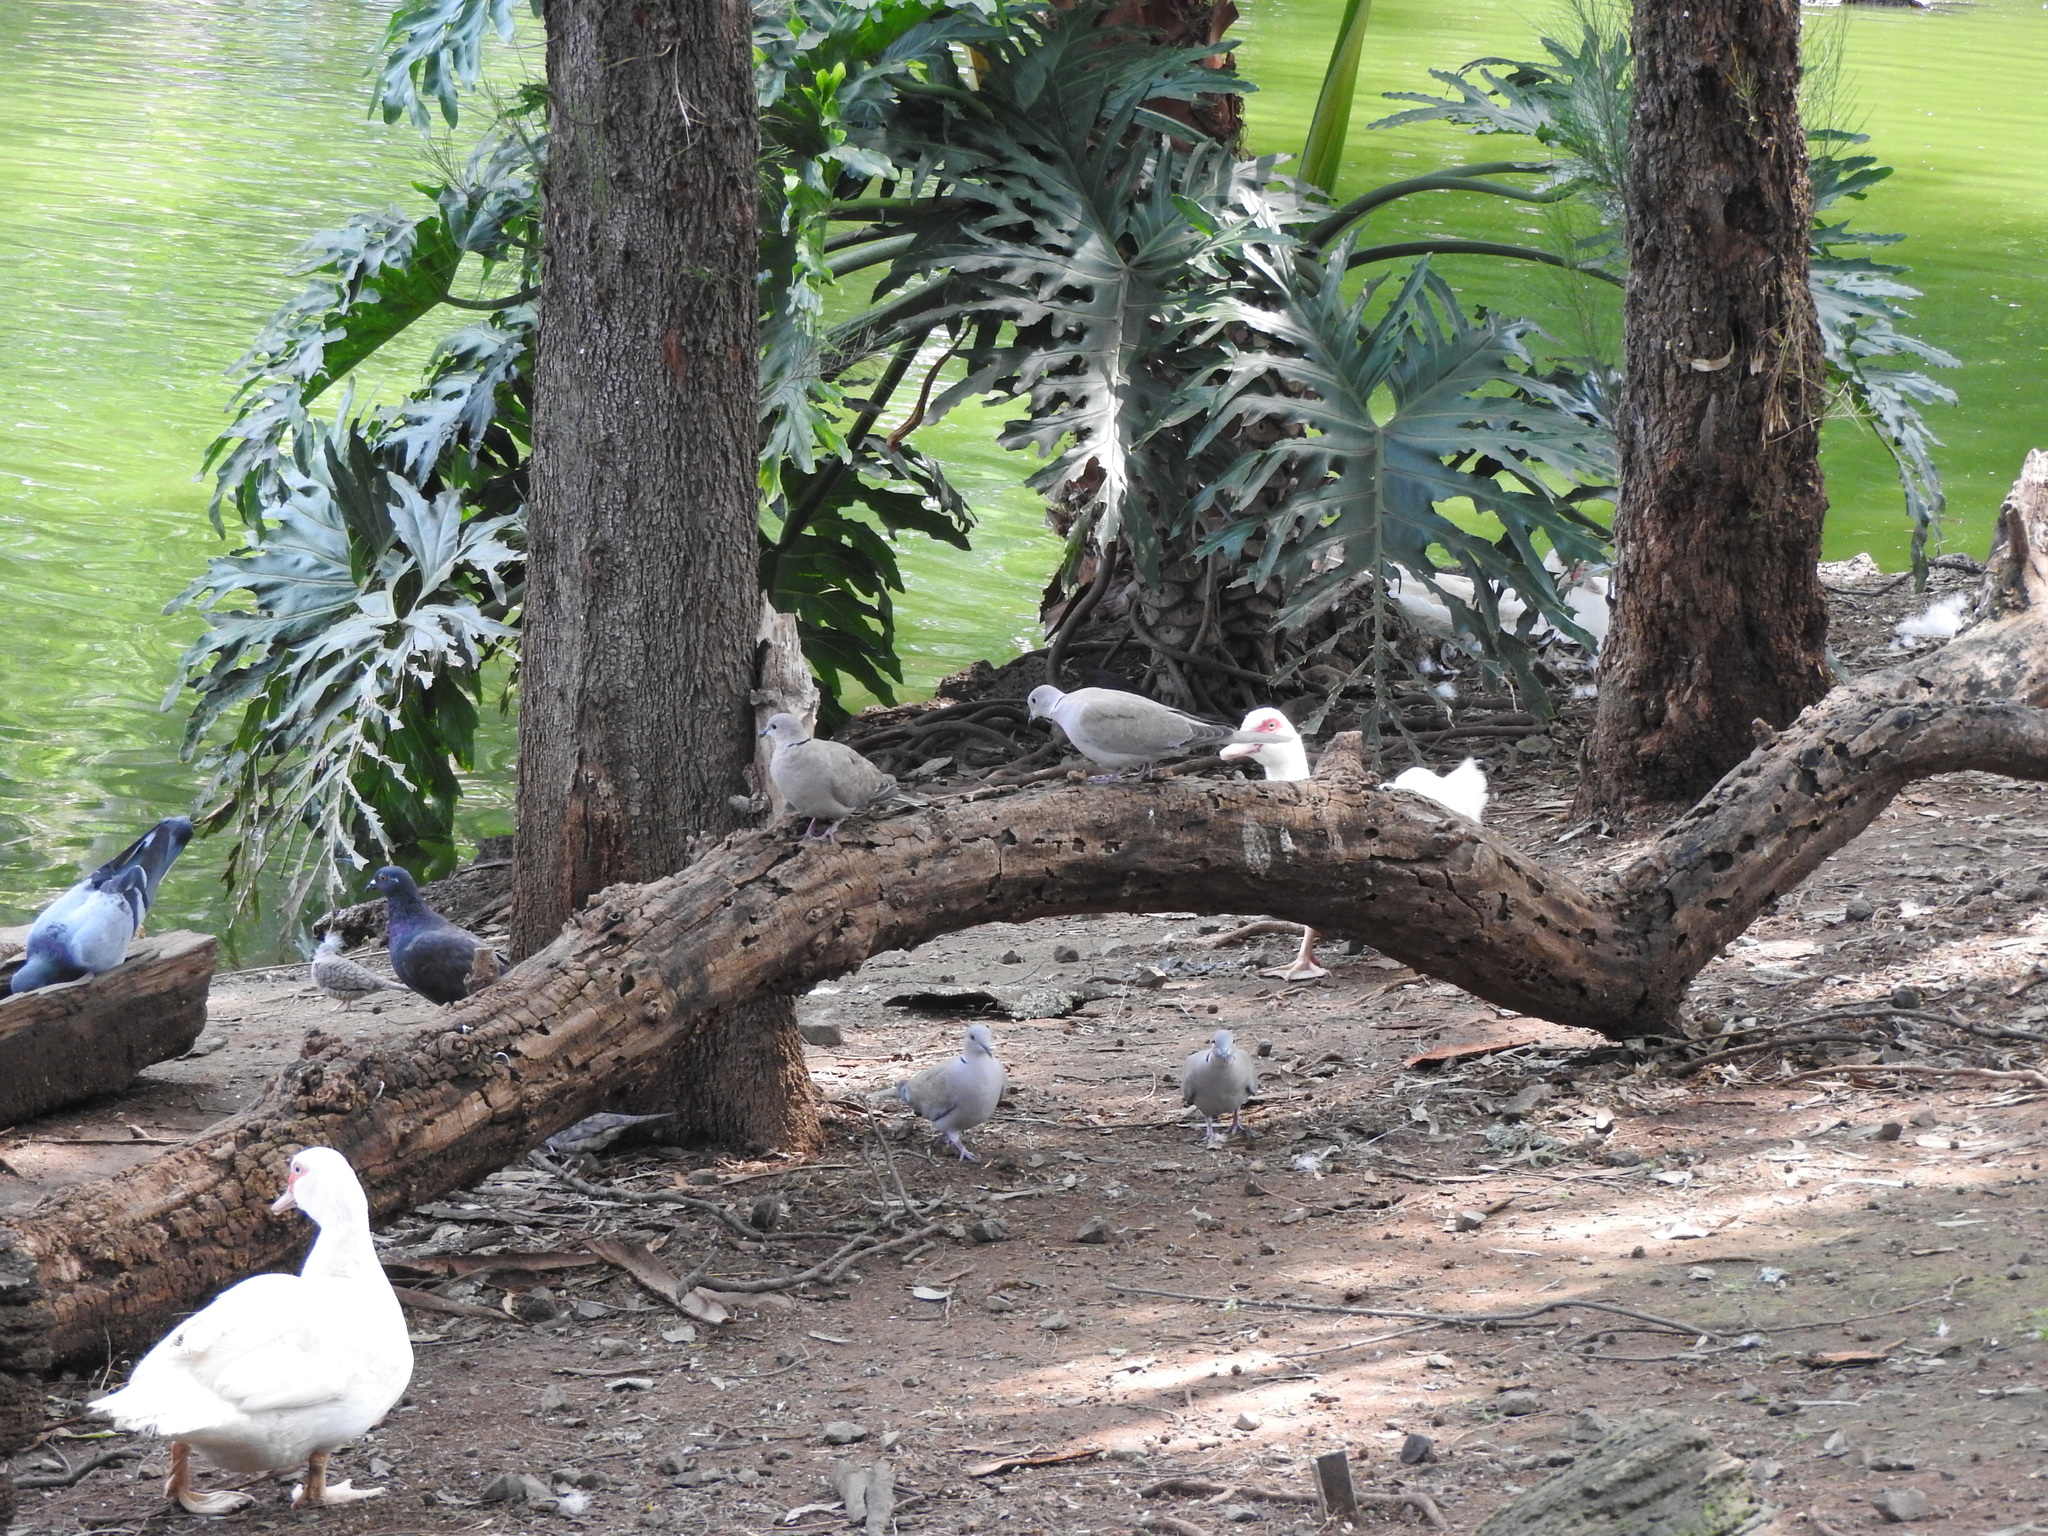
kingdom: Animalia
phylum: Chordata
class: Aves
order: Columbiformes
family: Columbidae
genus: Streptopelia
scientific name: Streptopelia decaocto
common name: Eurasian collared dove
